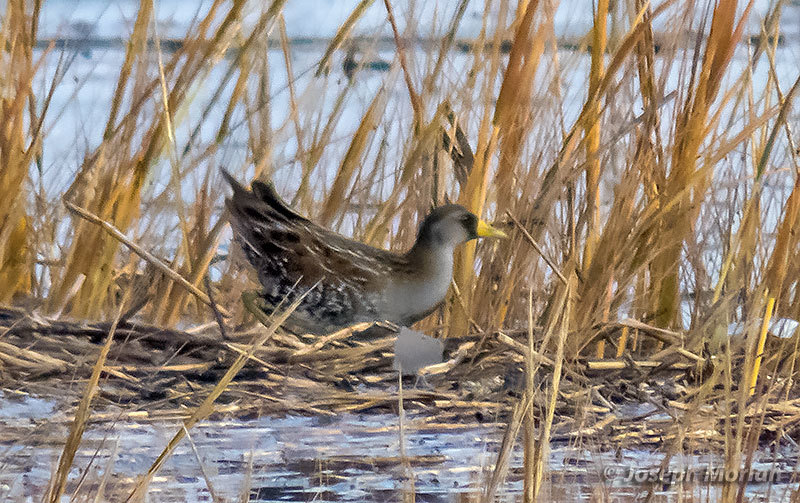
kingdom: Animalia
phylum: Chordata
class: Aves
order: Gruiformes
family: Rallidae
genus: Porzana
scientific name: Porzana carolina
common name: Sora
